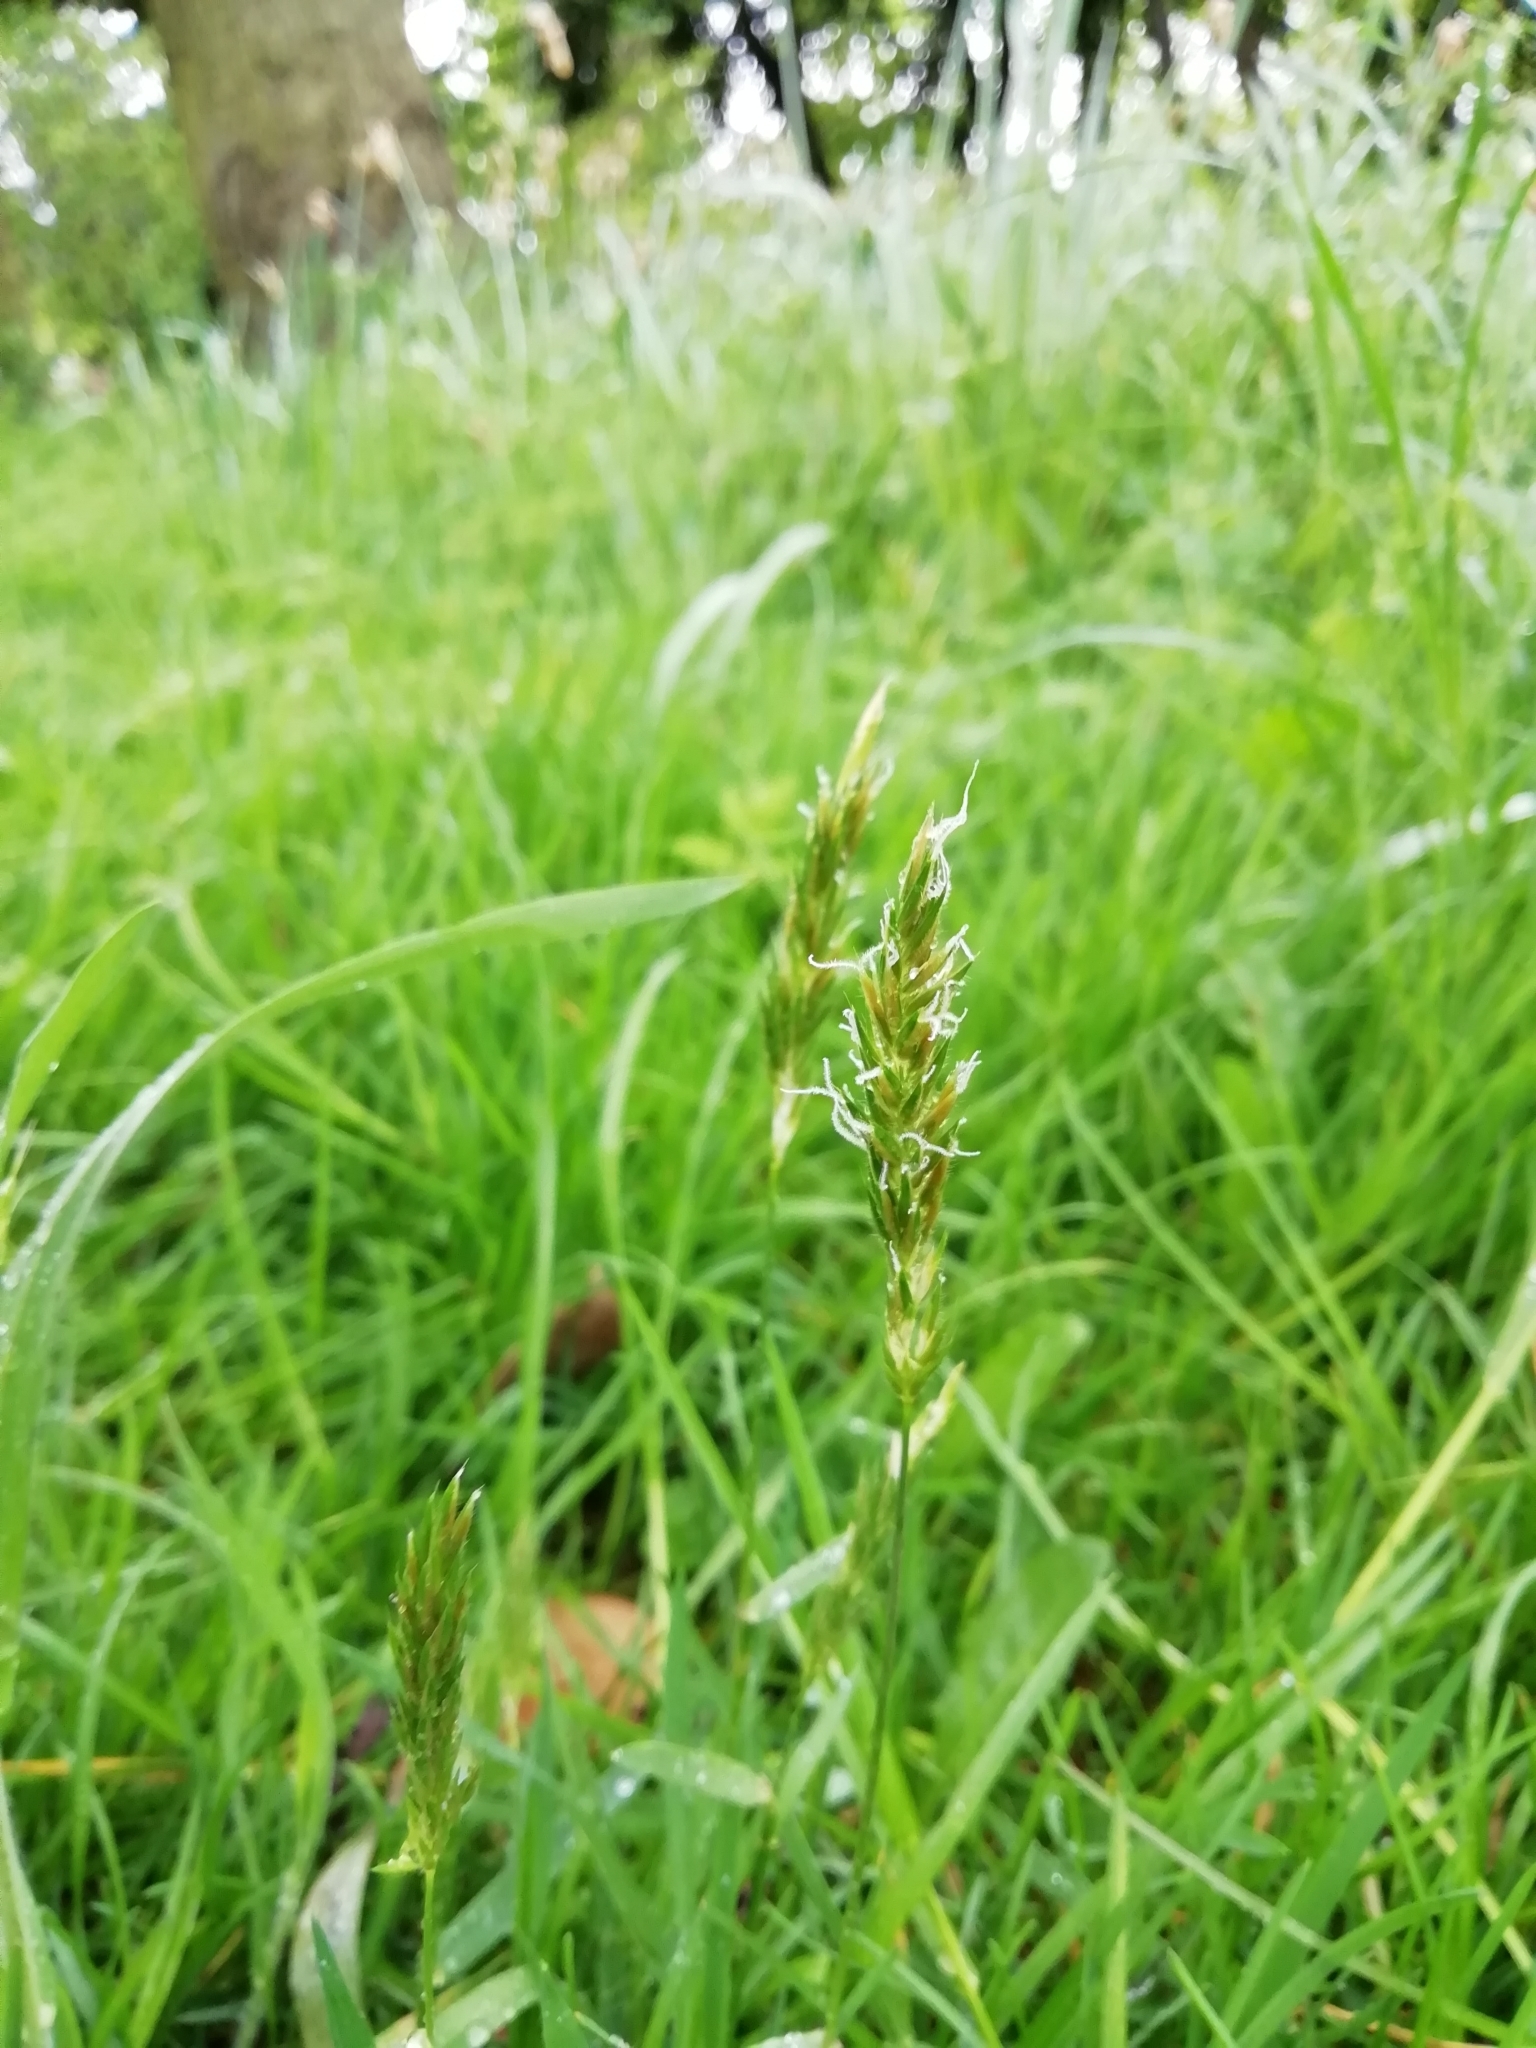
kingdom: Plantae
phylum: Tracheophyta
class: Liliopsida
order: Poales
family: Poaceae
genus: Anthoxanthum
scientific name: Anthoxanthum odoratum
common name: Sweet vernalgrass
